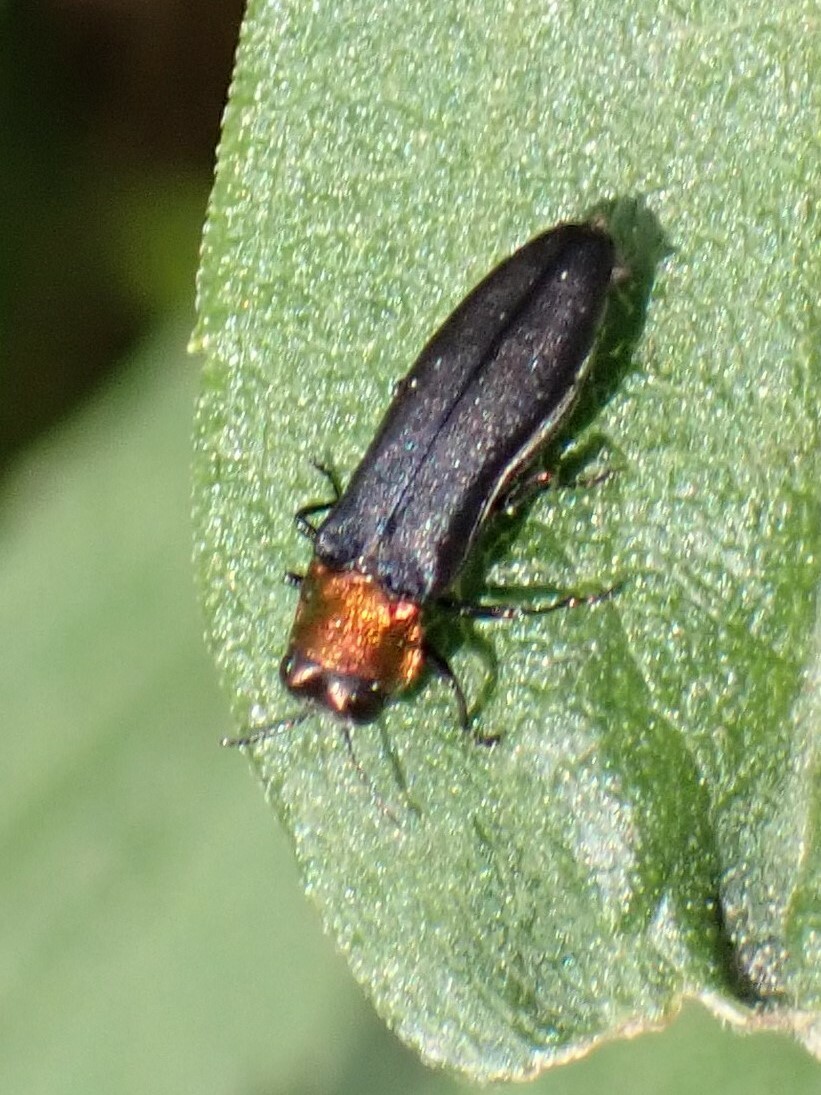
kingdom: Animalia
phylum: Arthropoda
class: Insecta
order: Coleoptera
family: Buprestidae
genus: Agrilus
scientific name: Agrilus ruficollis
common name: Red-necked cane borer beetle
